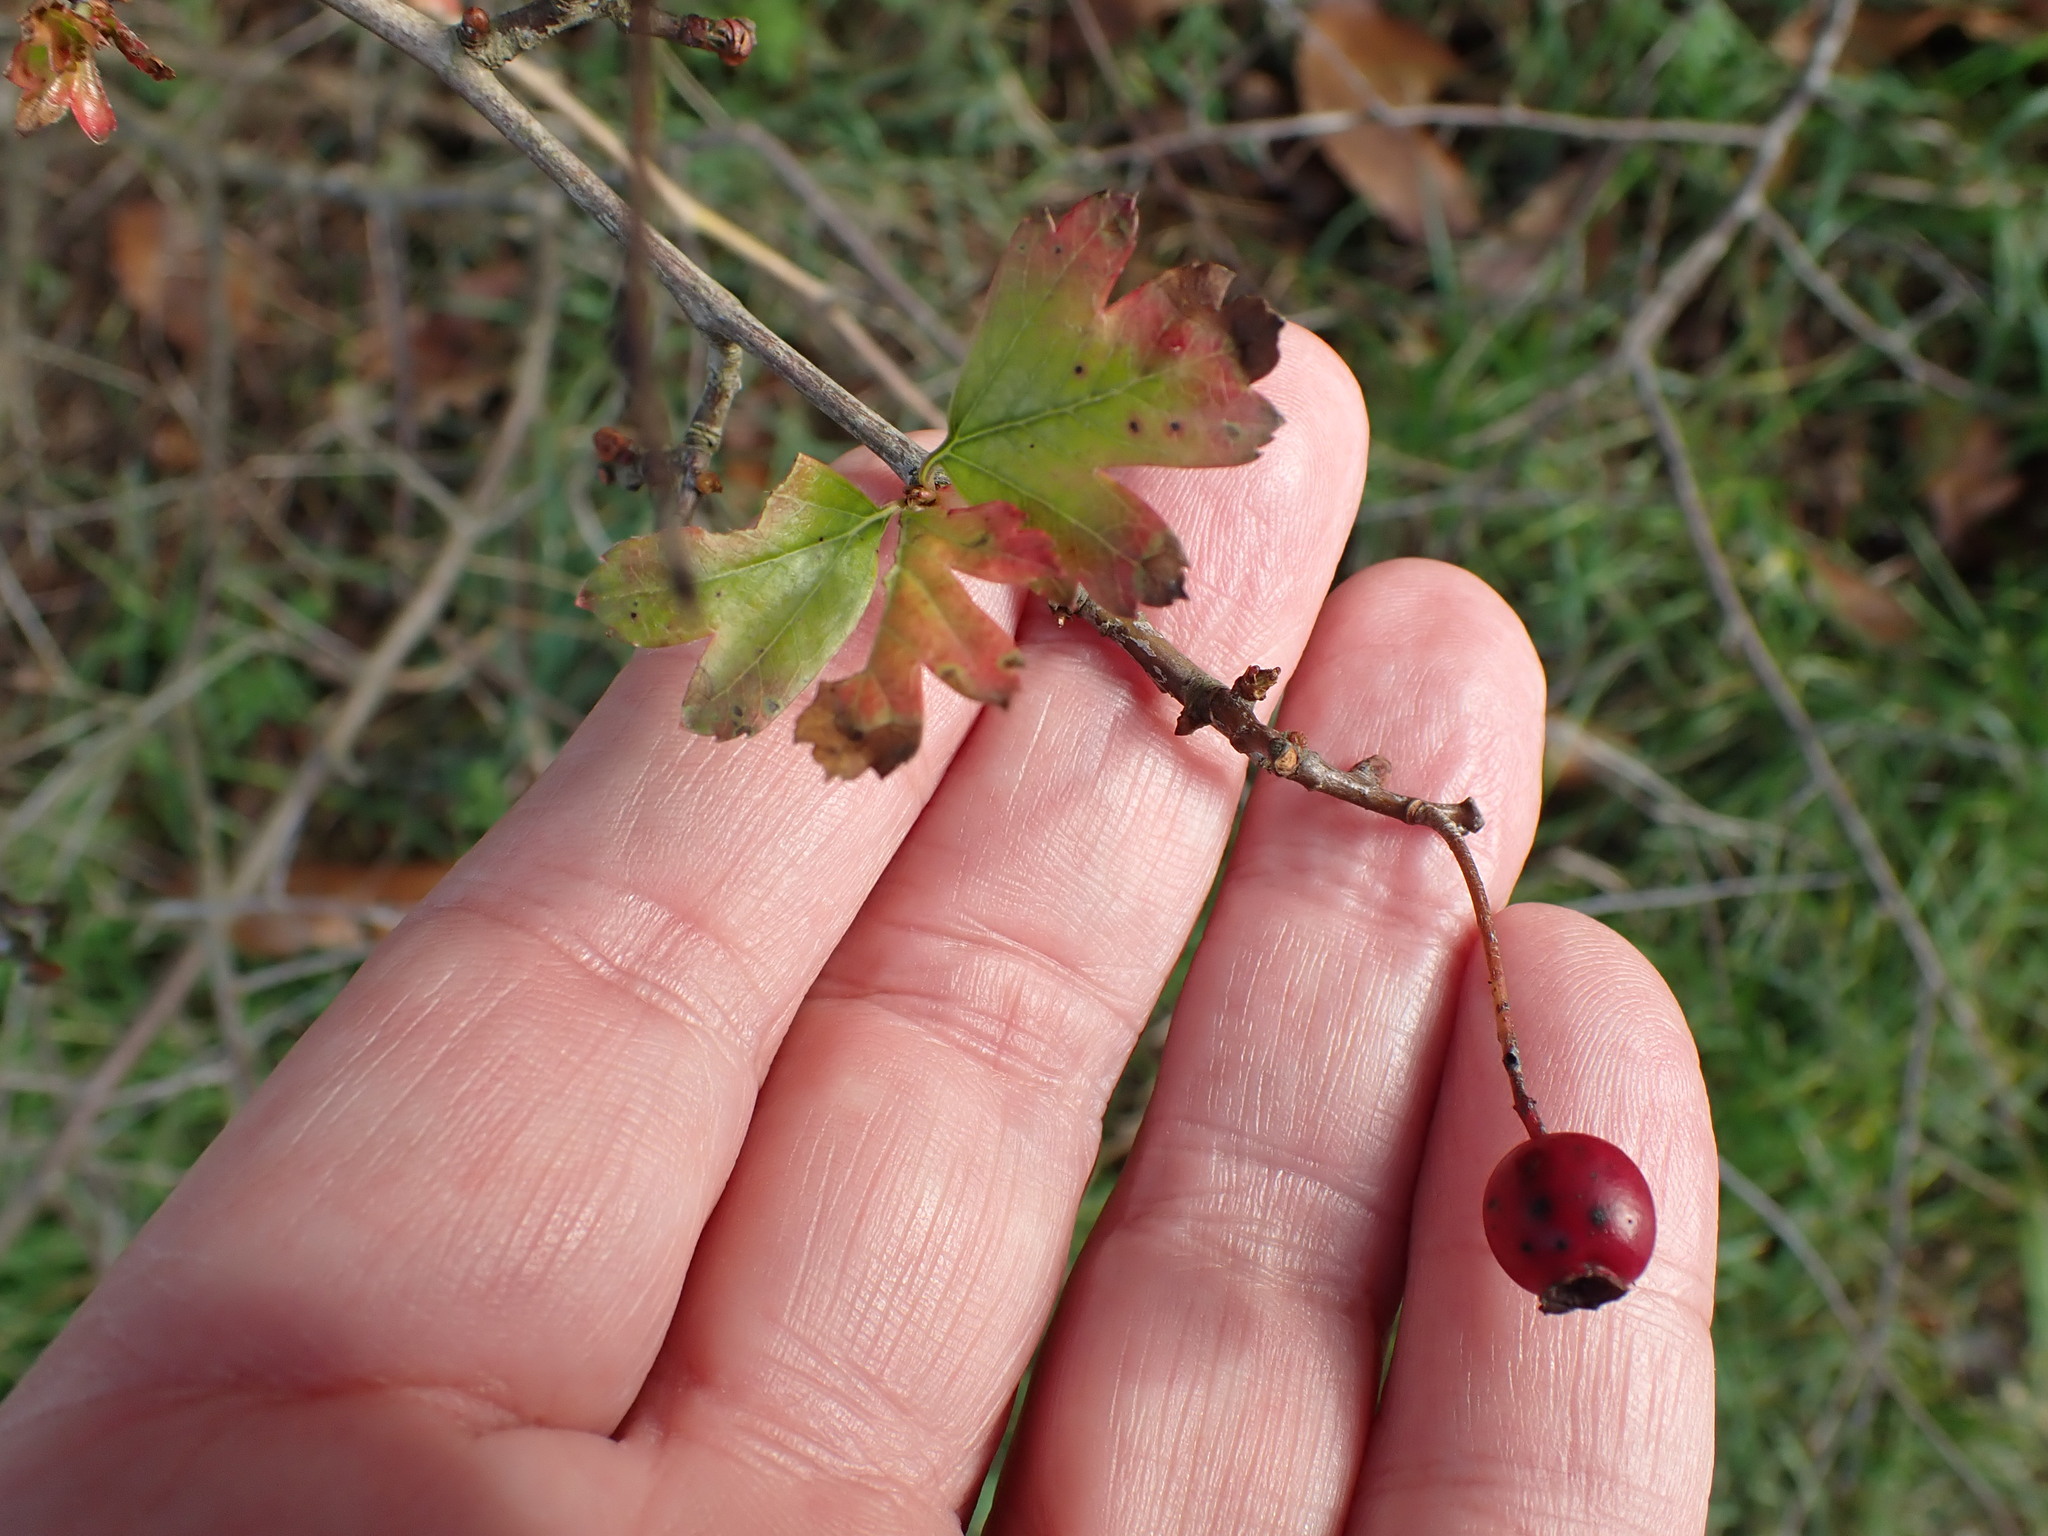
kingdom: Plantae
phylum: Tracheophyta
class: Magnoliopsida
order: Rosales
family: Rosaceae
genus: Crataegus
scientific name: Crataegus monogyna
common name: Hawthorn
